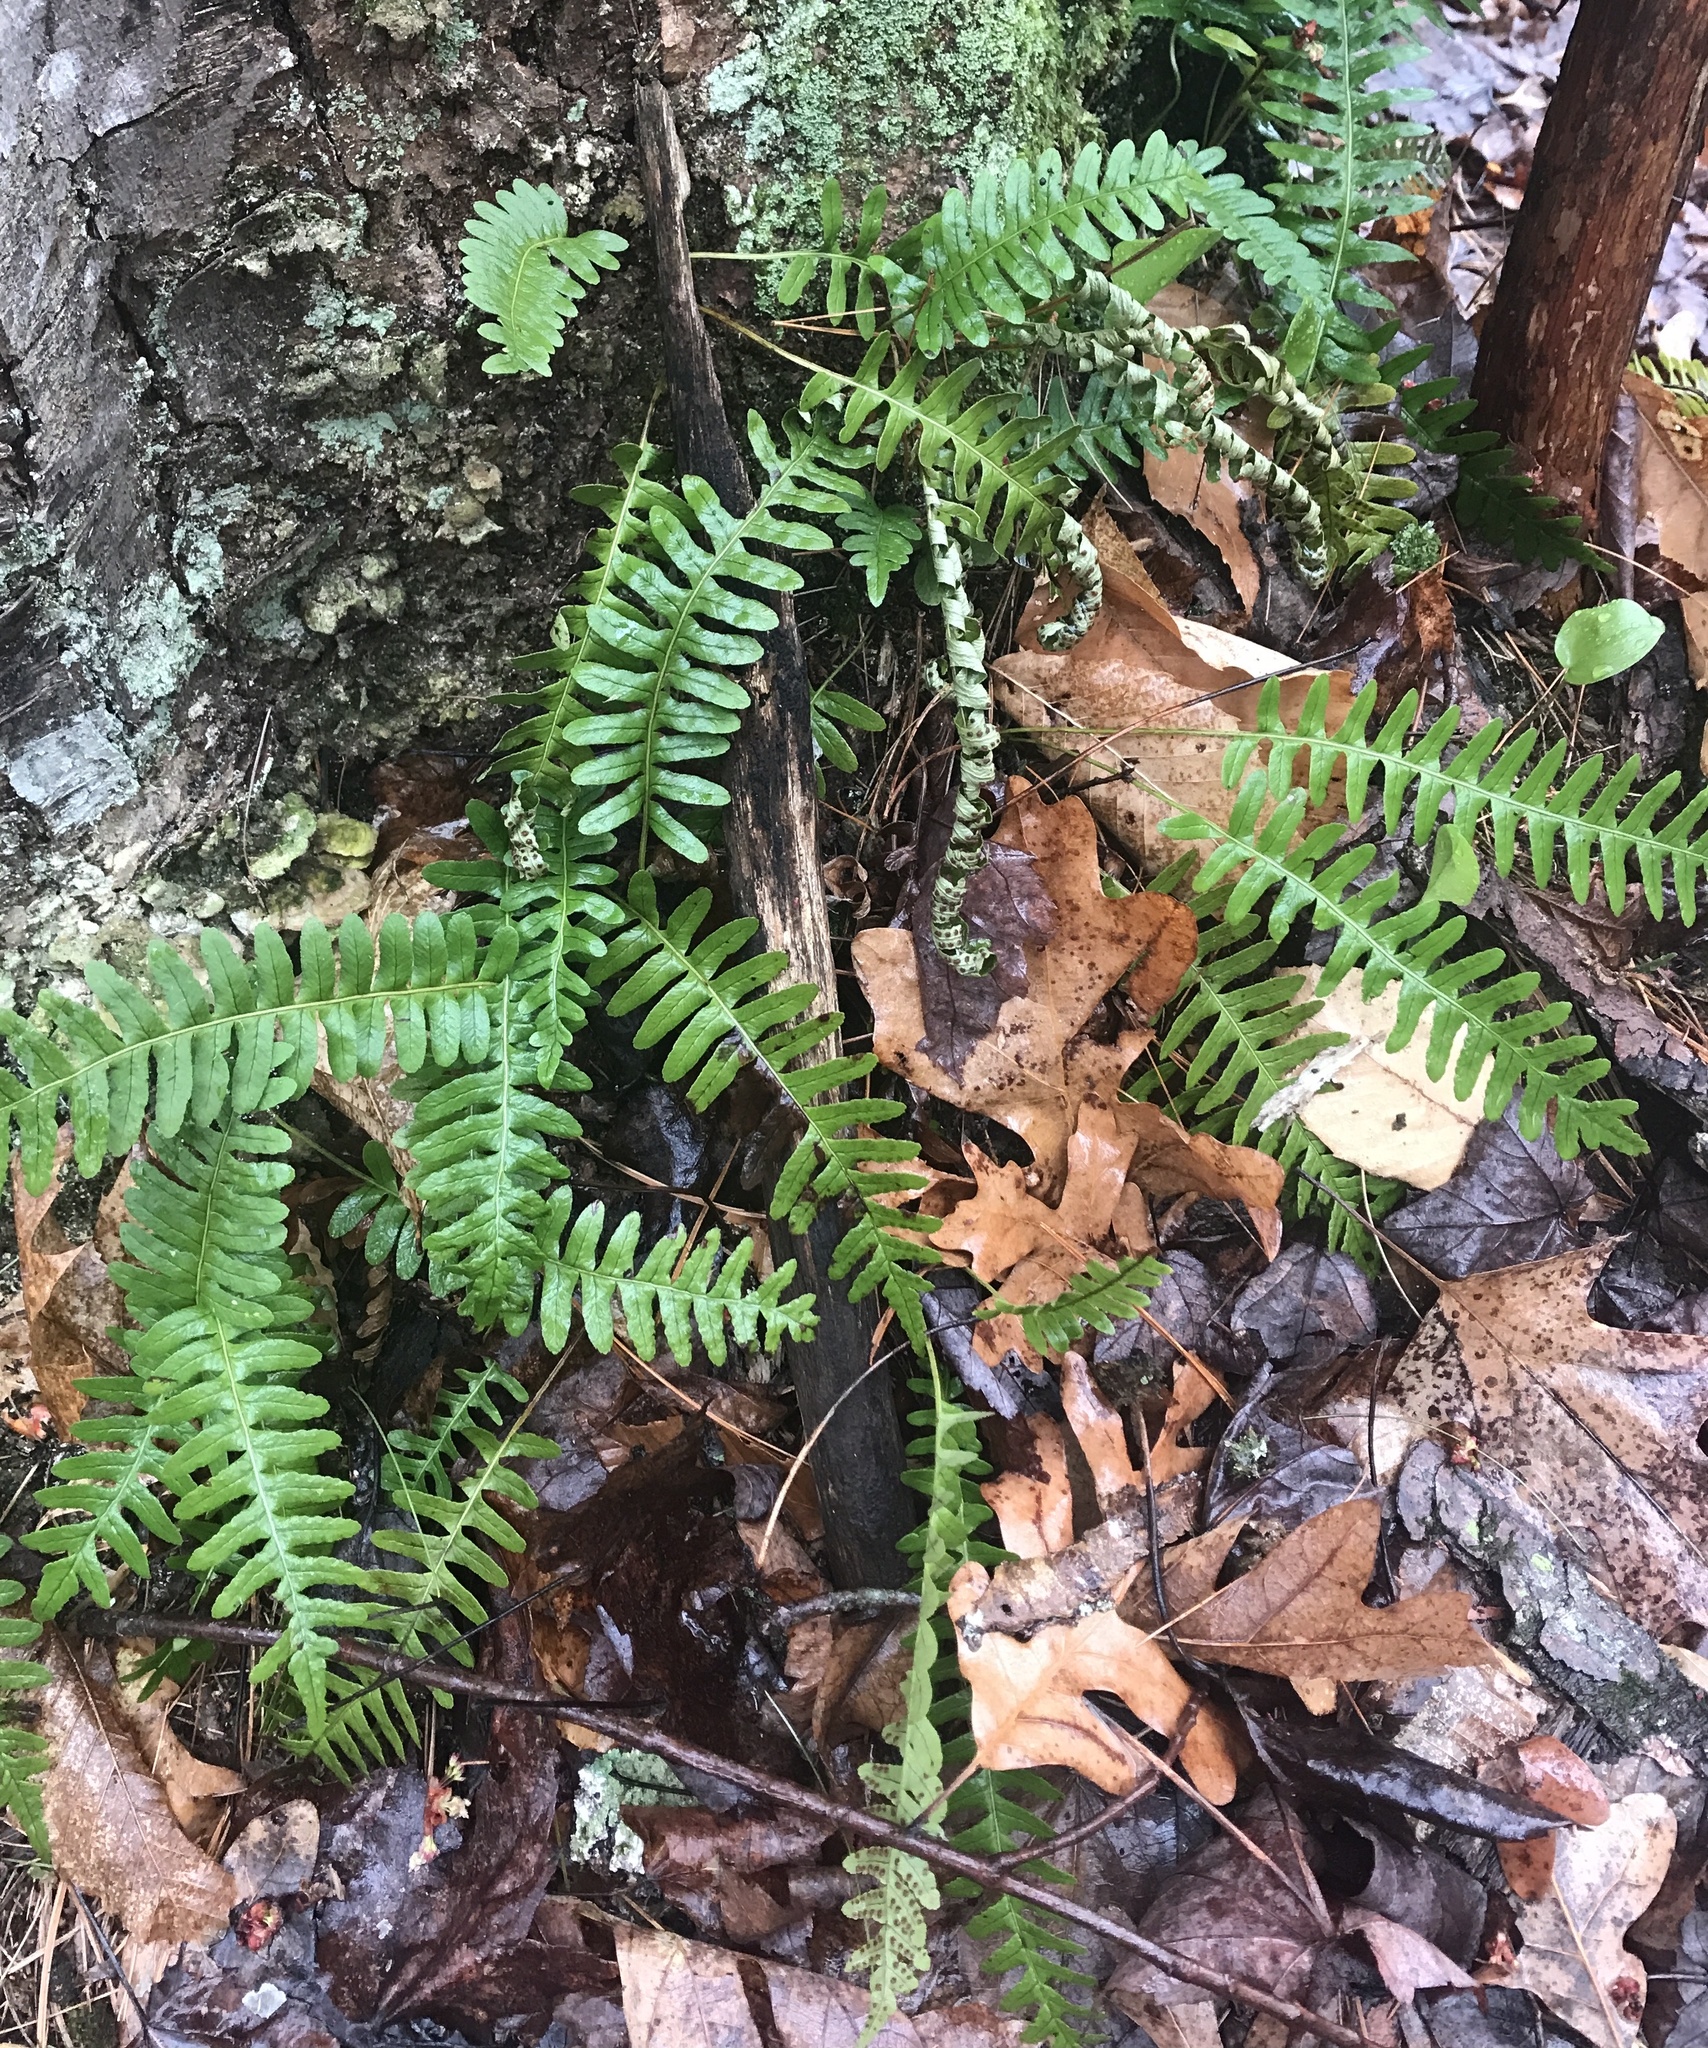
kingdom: Plantae
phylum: Tracheophyta
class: Polypodiopsida
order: Polypodiales
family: Polypodiaceae
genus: Polypodium
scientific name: Polypodium virginianum
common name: American wall fern
